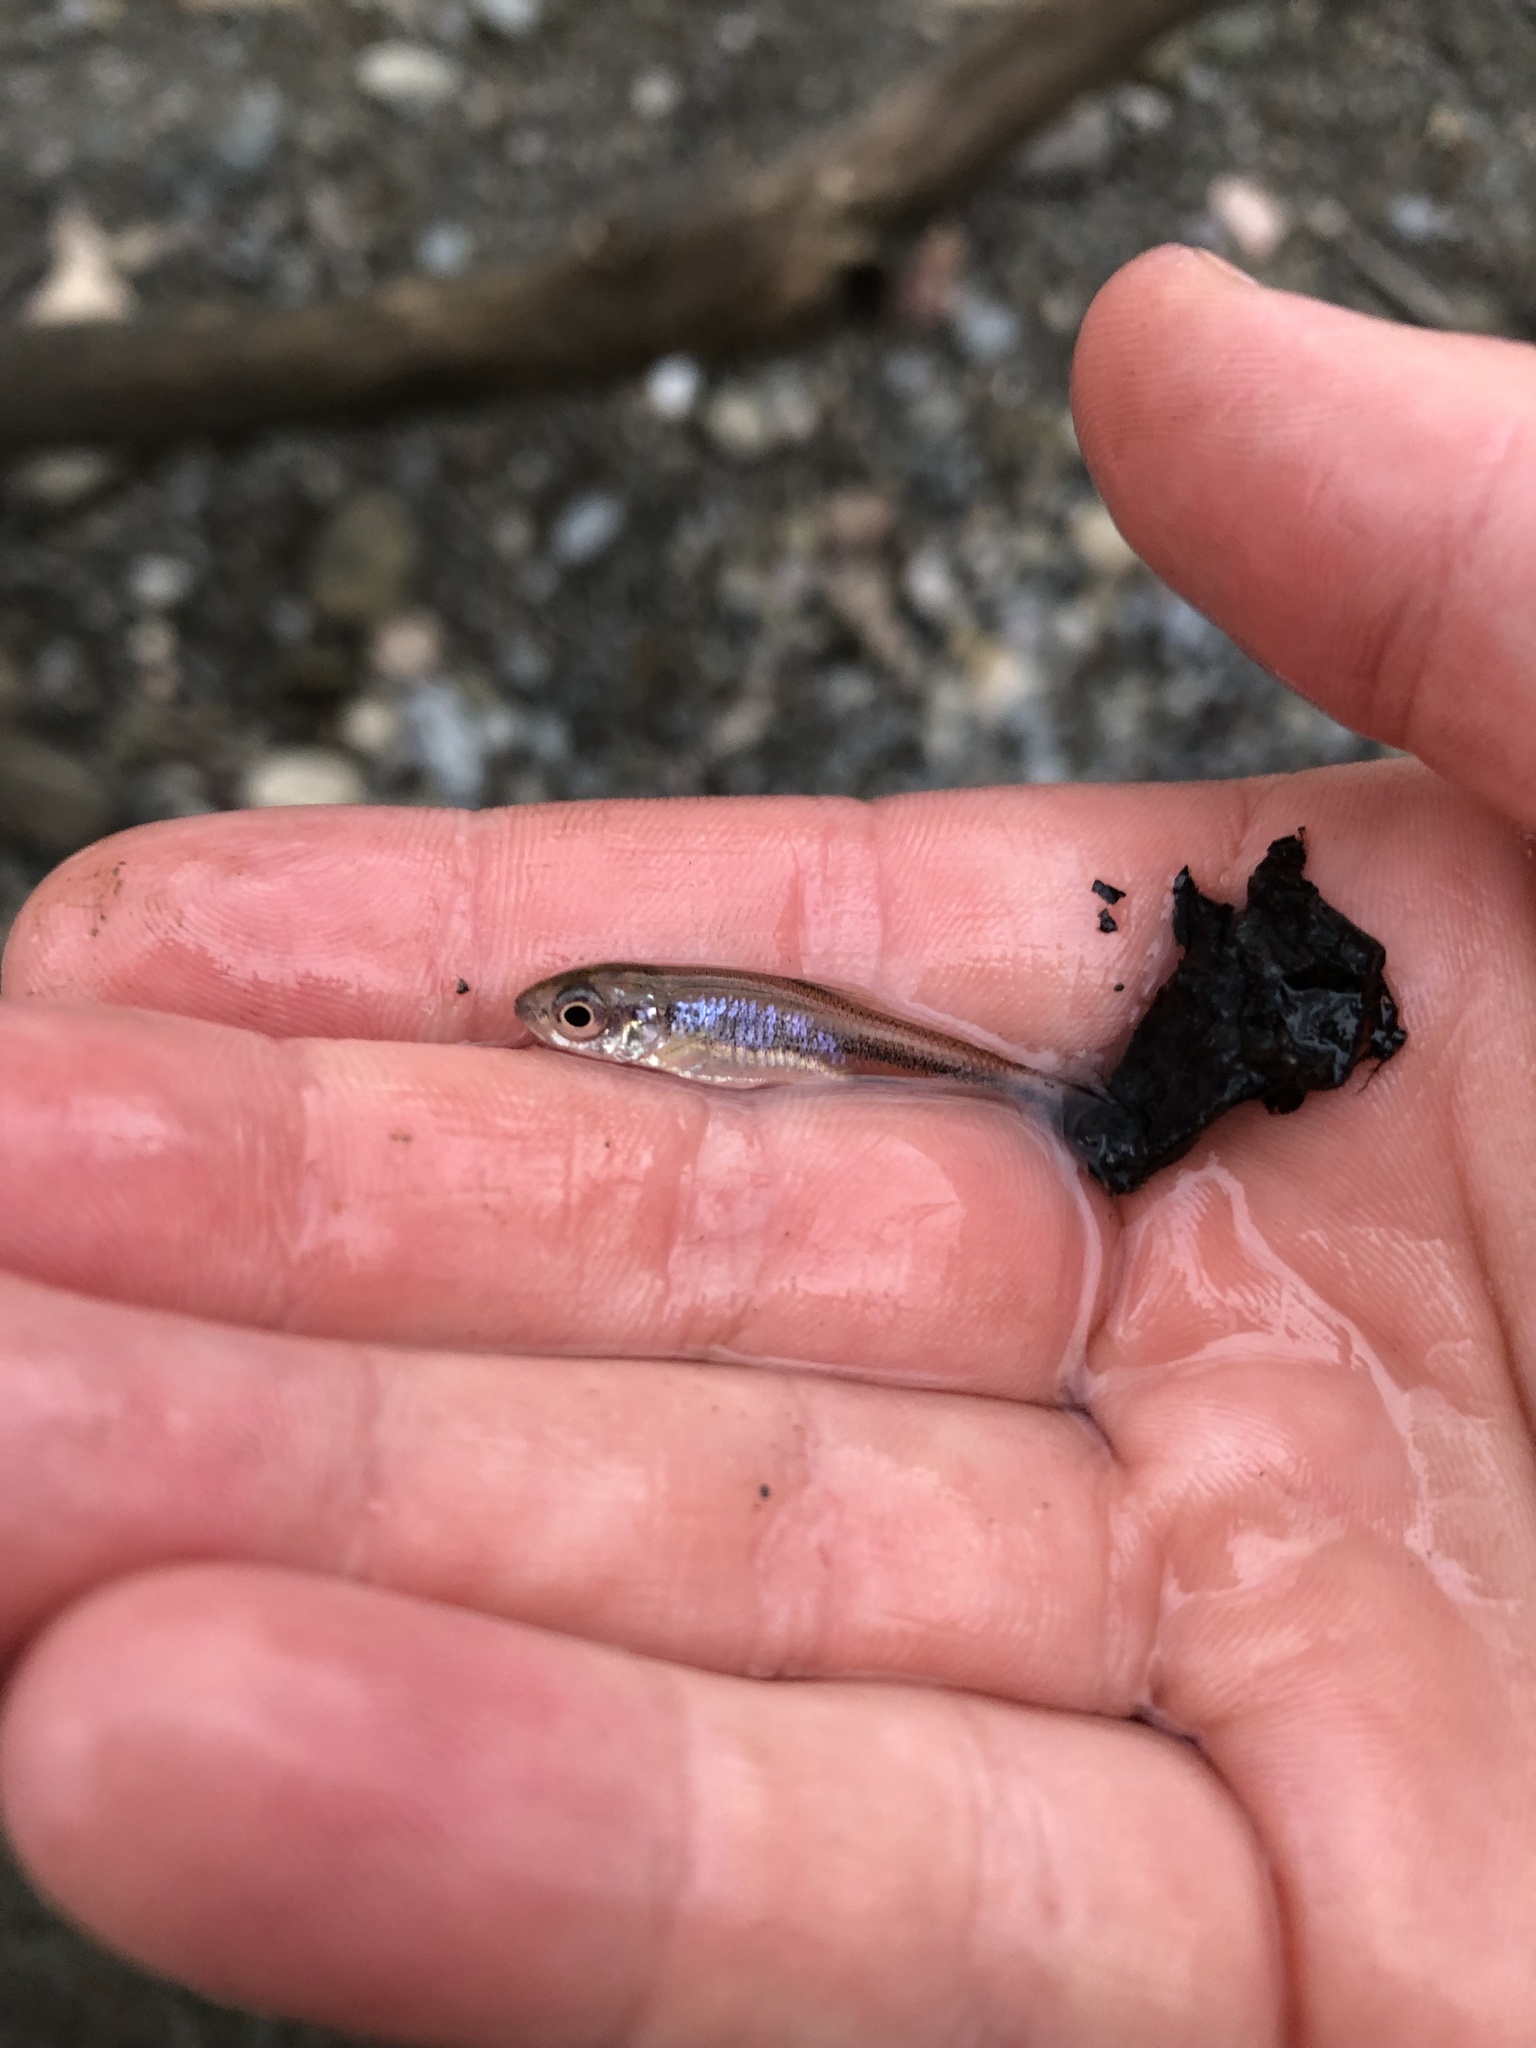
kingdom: Animalia
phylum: Chordata
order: Cypriniformes
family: Cyprinidae
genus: Luxilus
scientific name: Luxilus cornutus
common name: Common shiner
